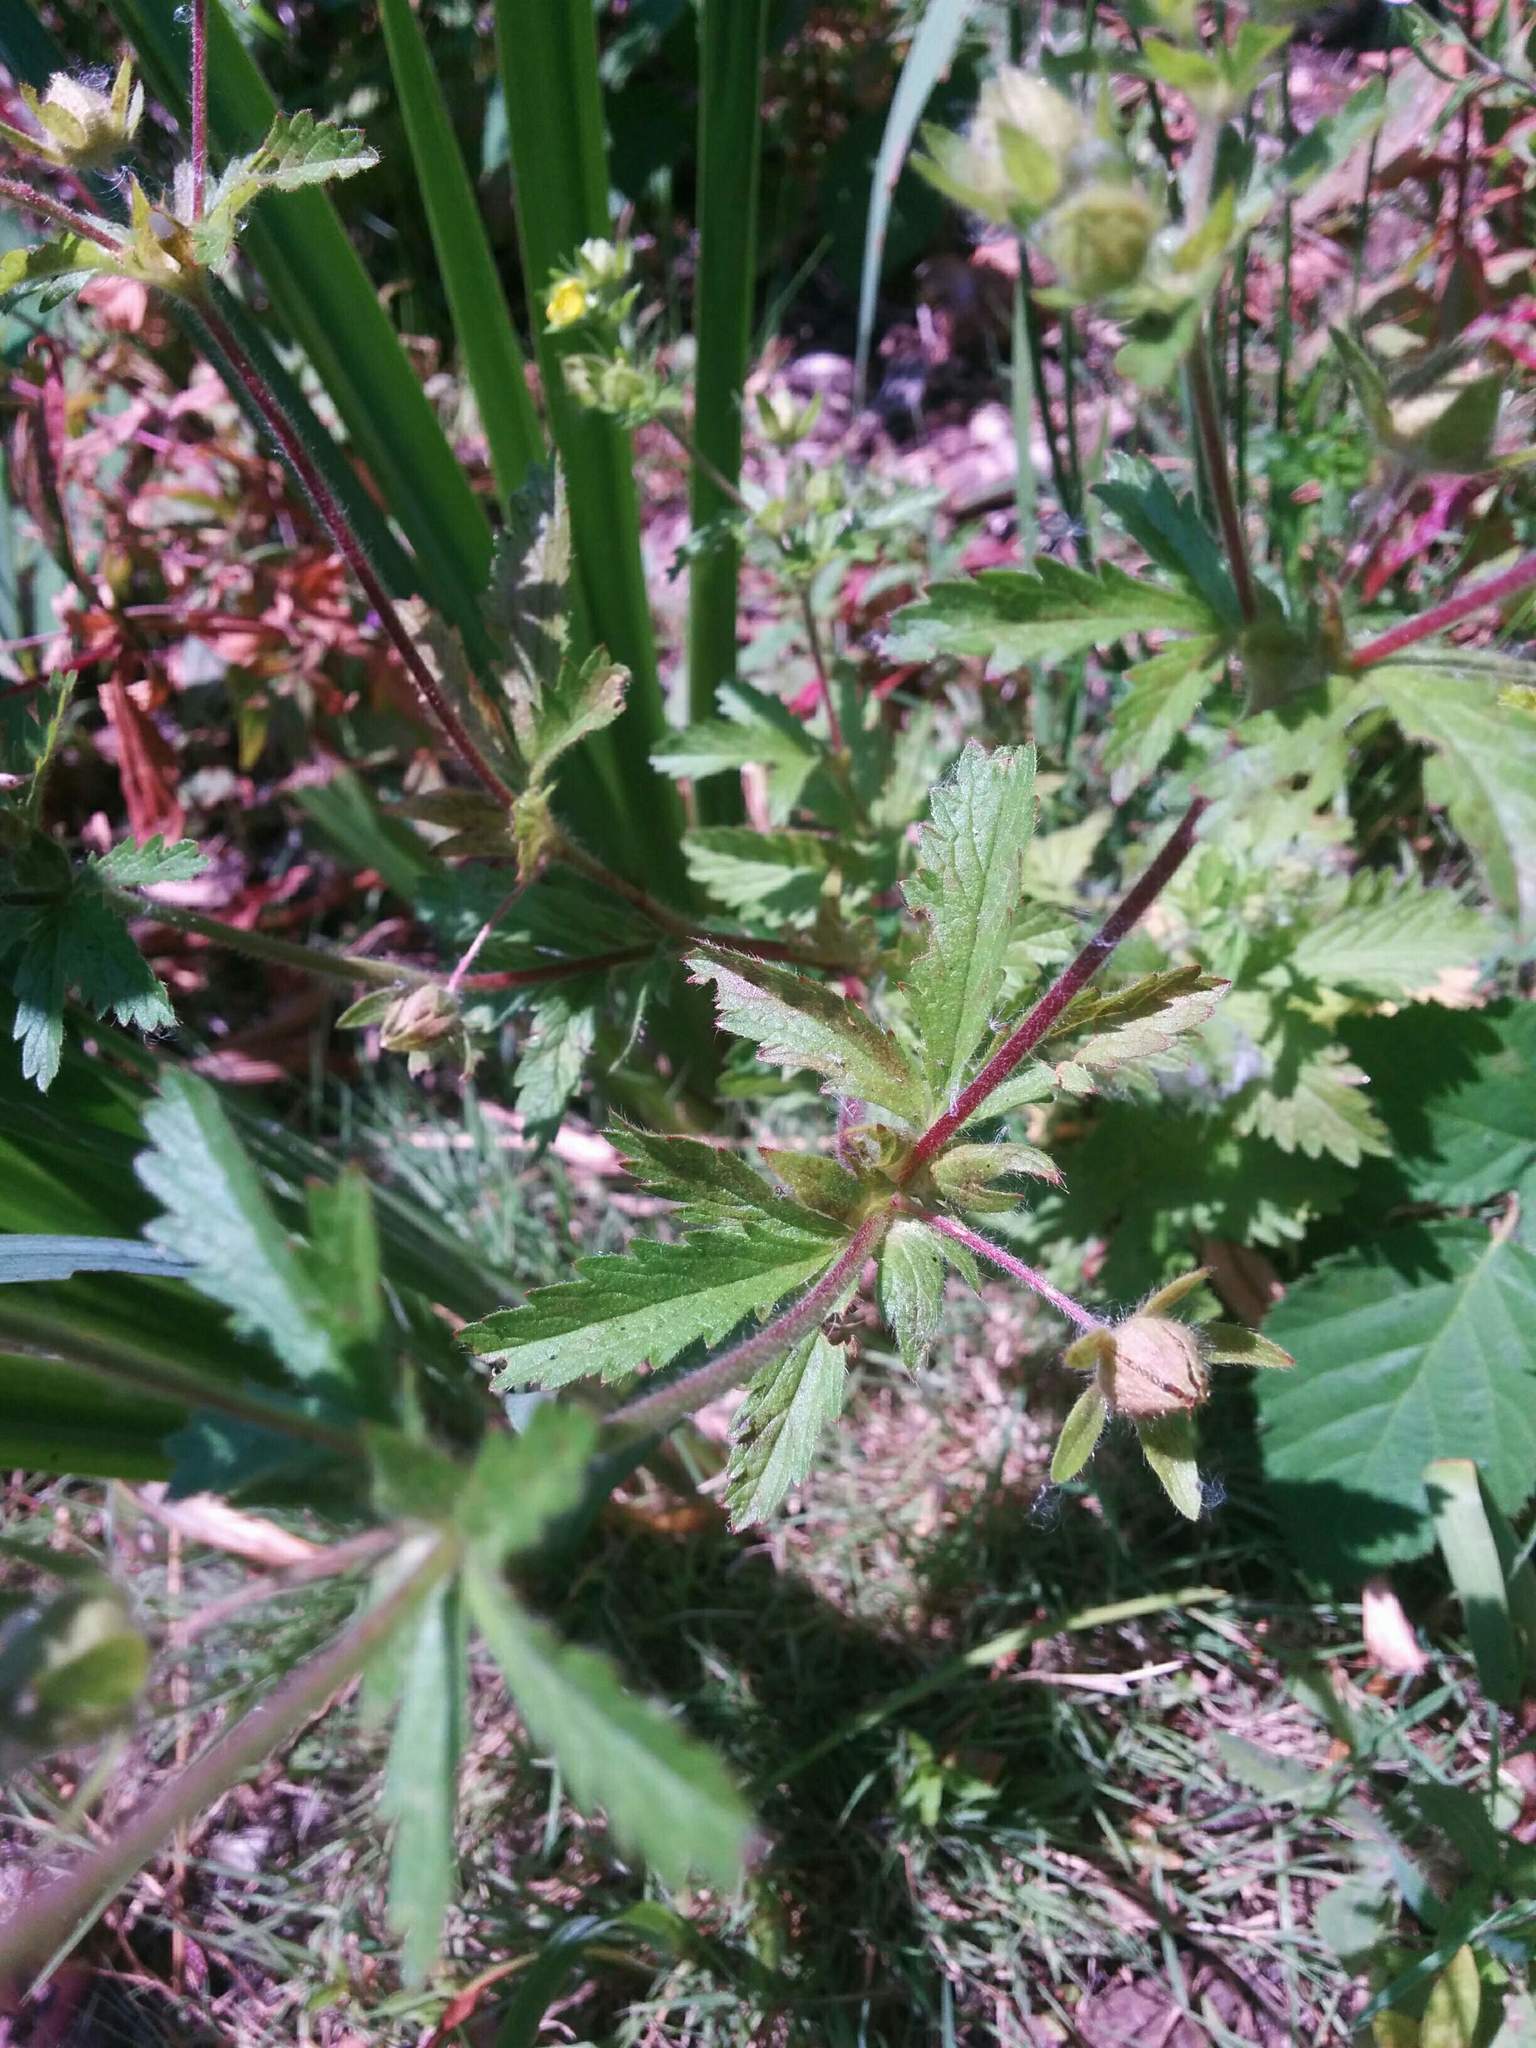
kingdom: Plantae
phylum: Tracheophyta
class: Magnoliopsida
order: Rosales
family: Rosaceae
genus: Potentilla
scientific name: Potentilla norvegica
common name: Ternate-leaved cinquefoil
